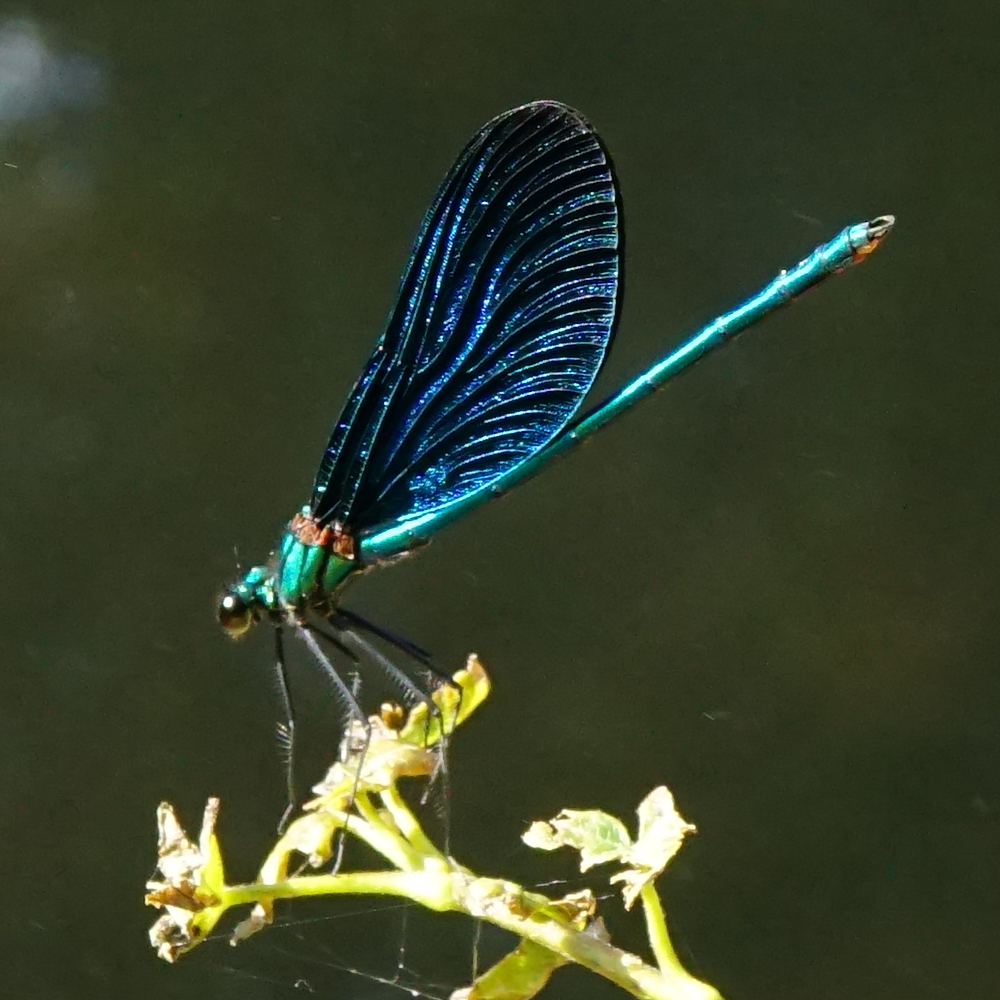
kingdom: Animalia
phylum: Arthropoda
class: Insecta
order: Odonata
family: Calopterygidae
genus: Calopteryx
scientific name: Calopteryx virgo
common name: Beautiful demoiselle
